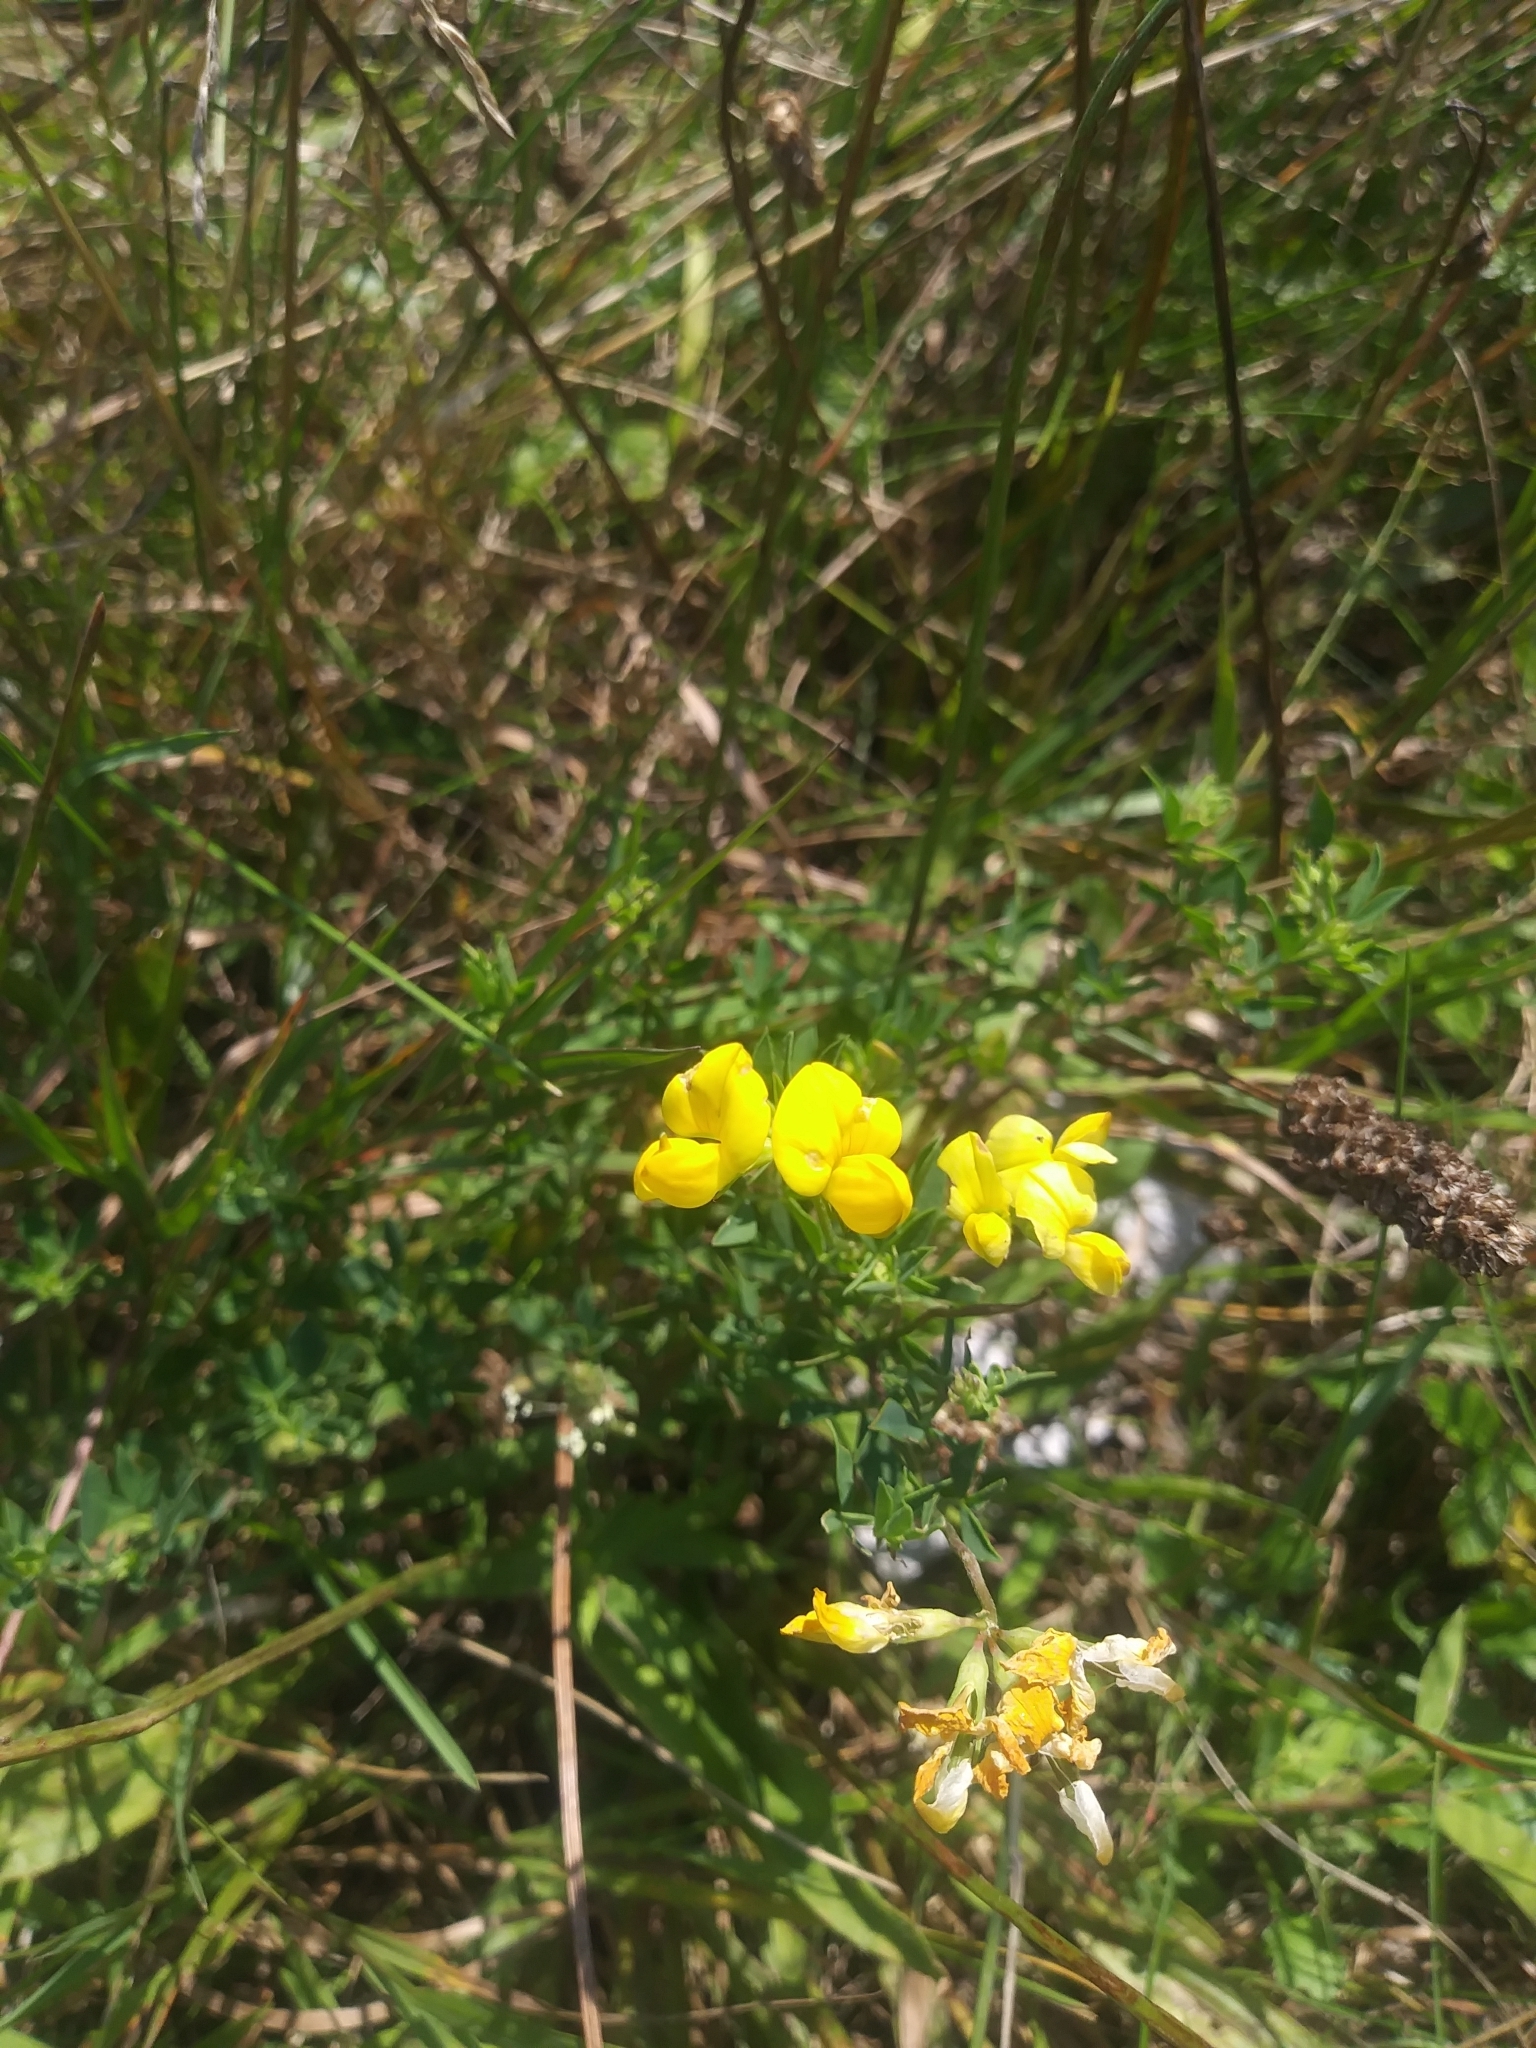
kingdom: Plantae
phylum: Tracheophyta
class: Magnoliopsida
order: Fabales
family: Fabaceae
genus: Lotus
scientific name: Lotus corniculatus
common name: Common bird's-foot-trefoil
